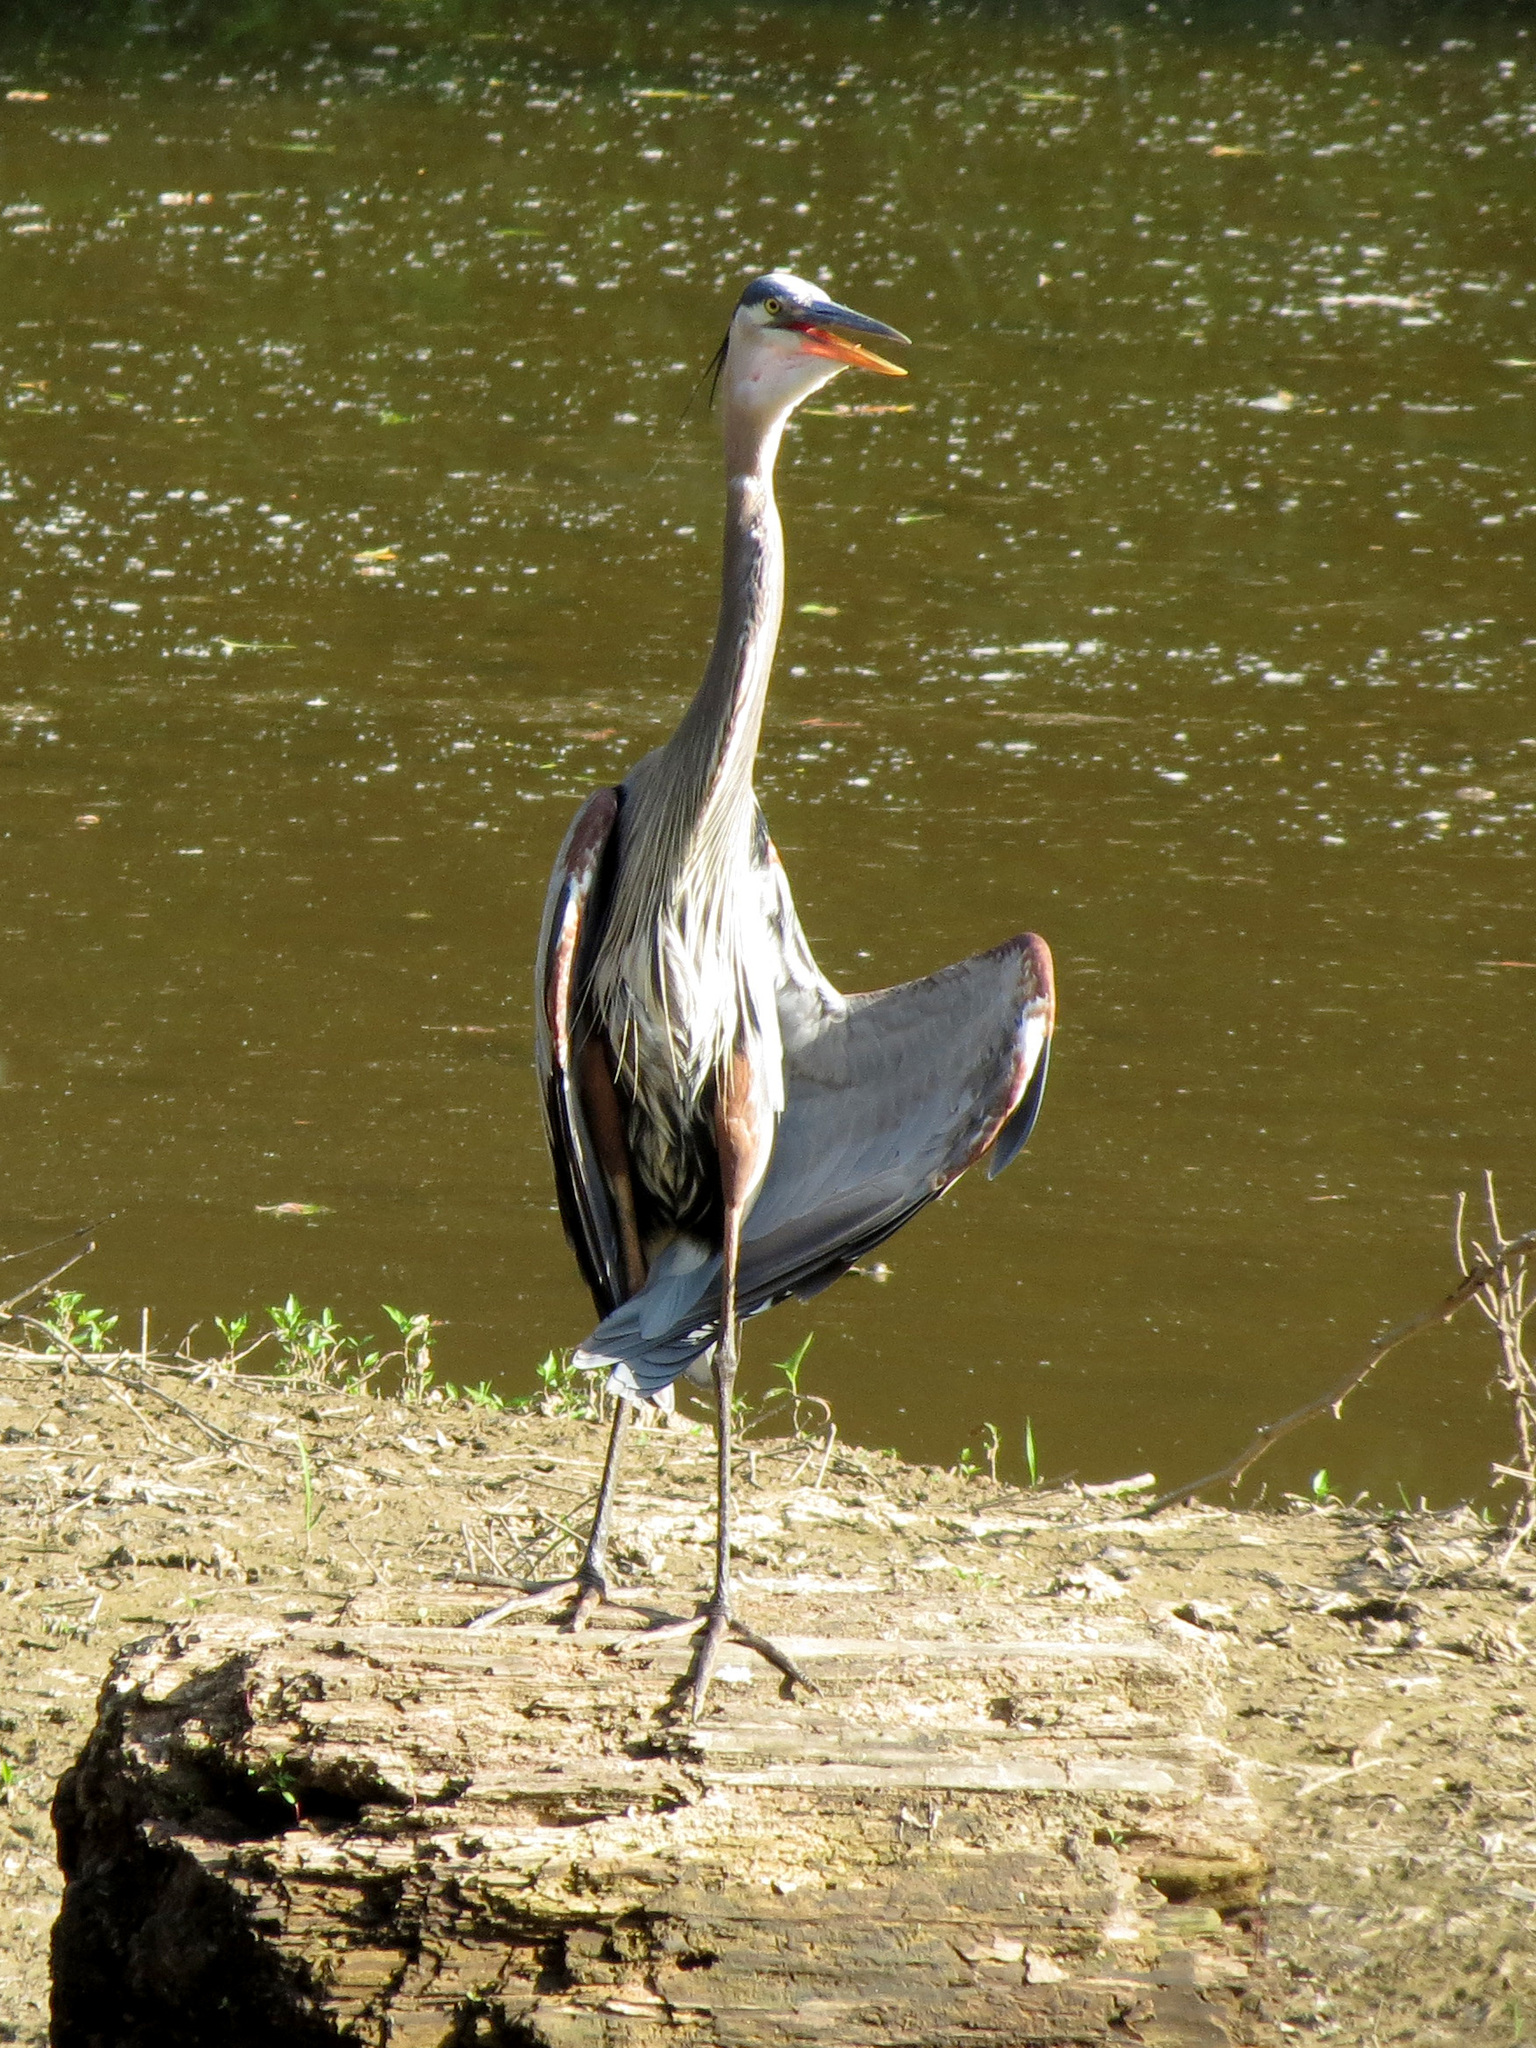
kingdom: Animalia
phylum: Chordata
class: Aves
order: Pelecaniformes
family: Ardeidae
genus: Ardea
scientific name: Ardea herodias
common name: Great blue heron
